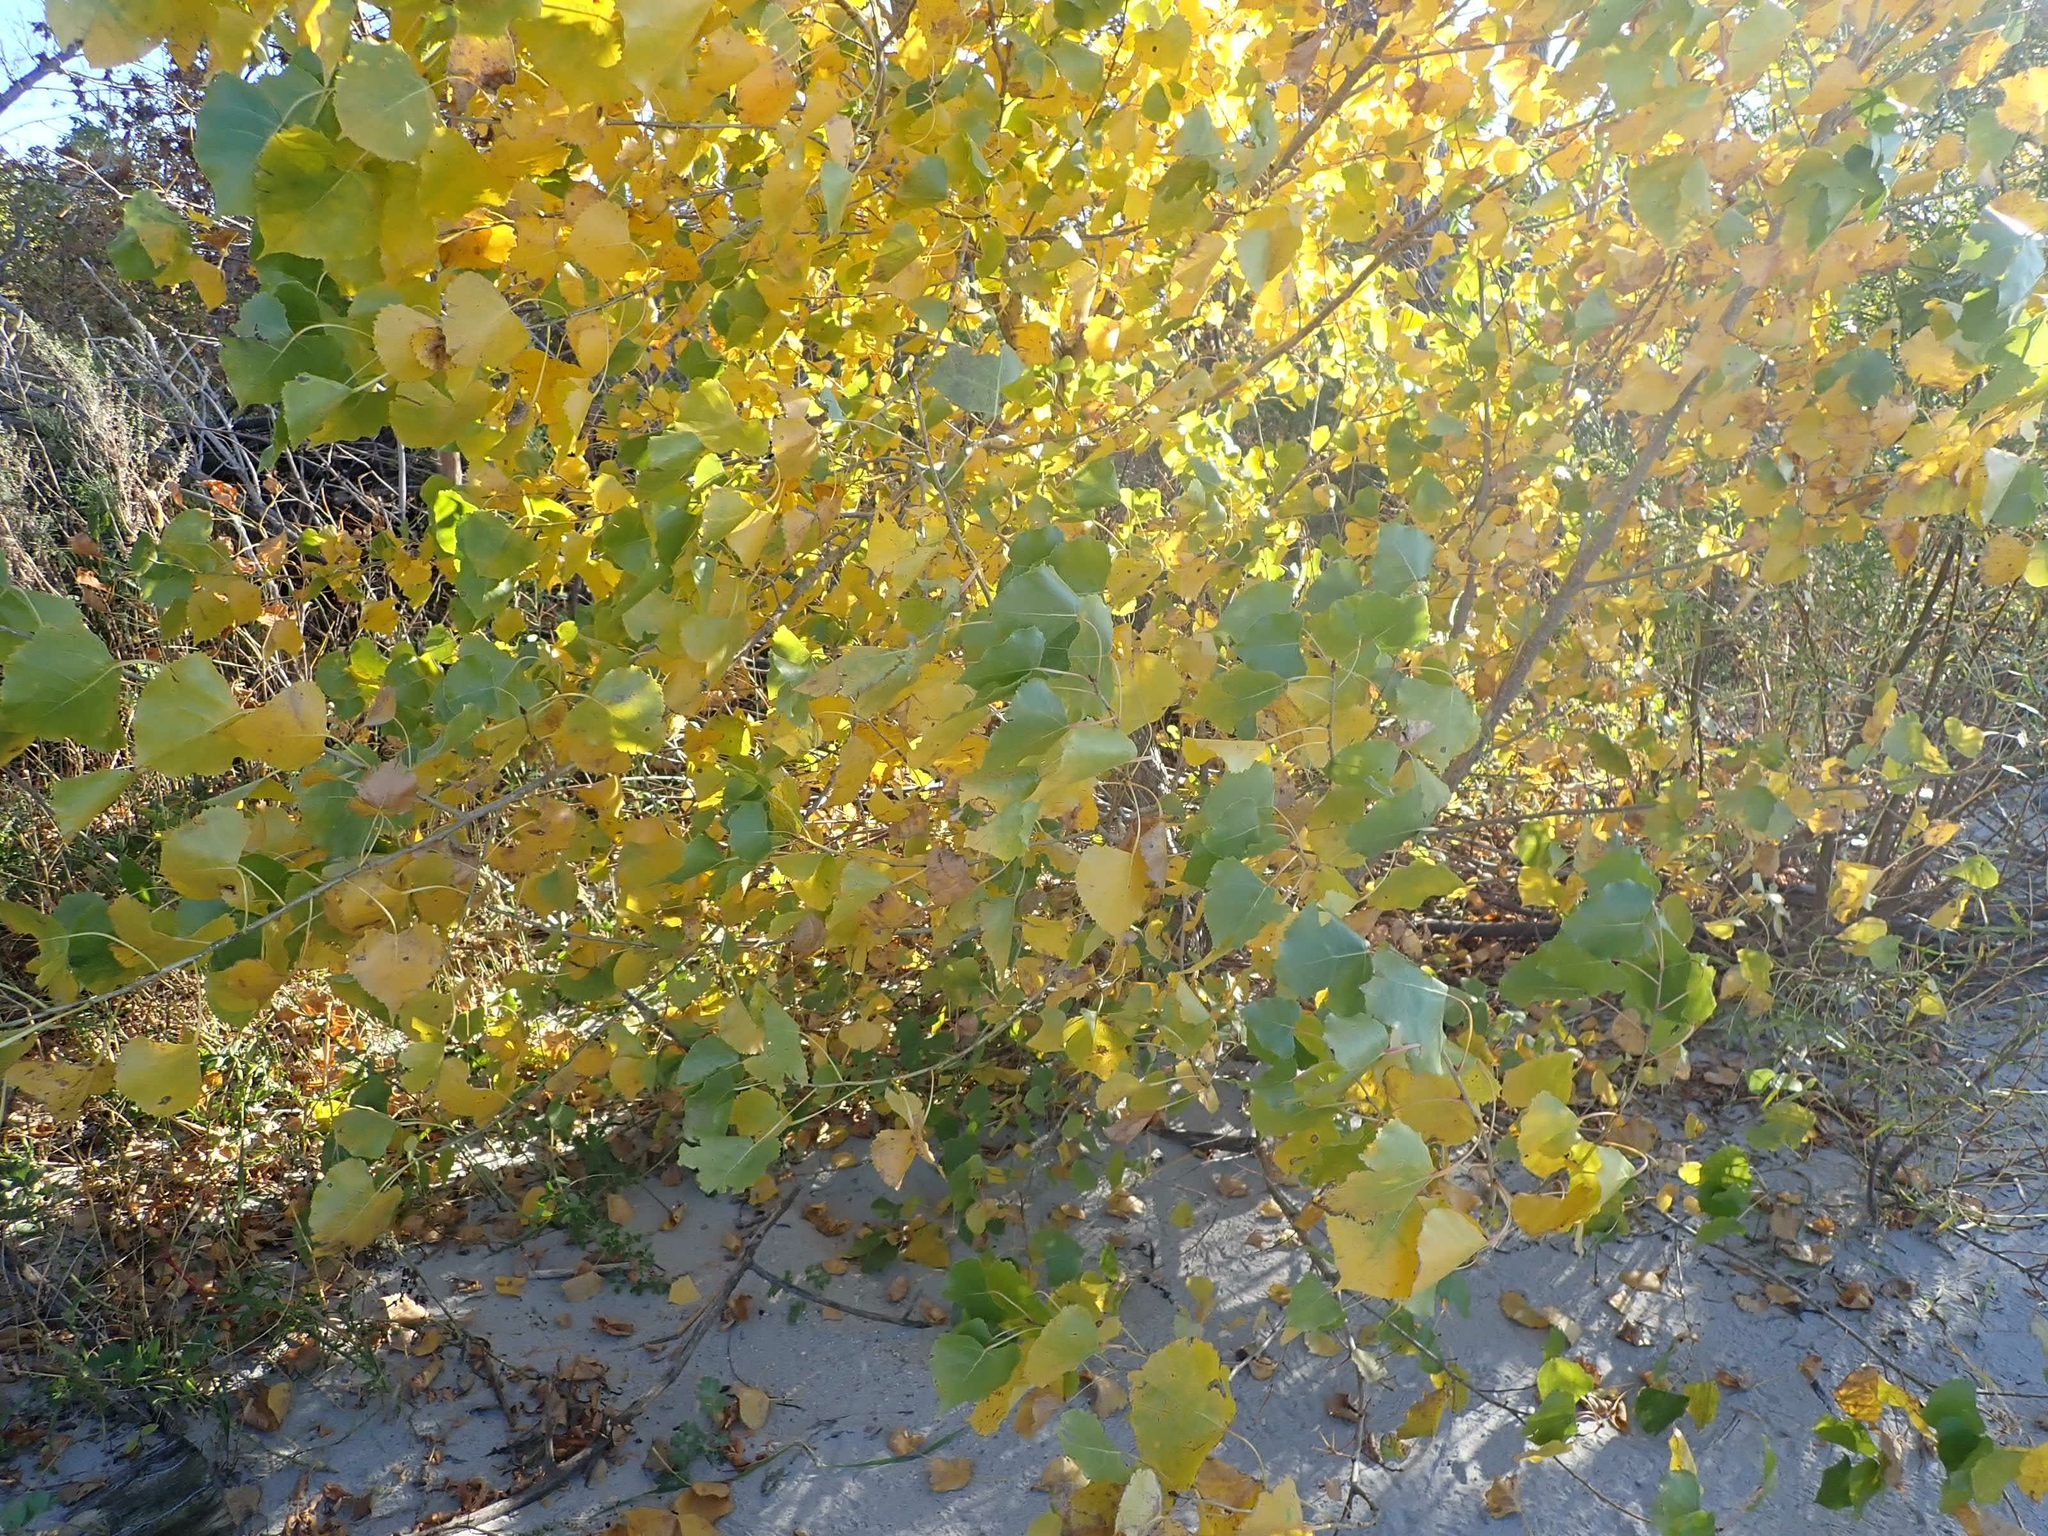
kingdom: Plantae
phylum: Tracheophyta
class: Magnoliopsida
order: Malpighiales
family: Salicaceae
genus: Populus
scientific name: Populus deltoides
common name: Eastern cottonwood
